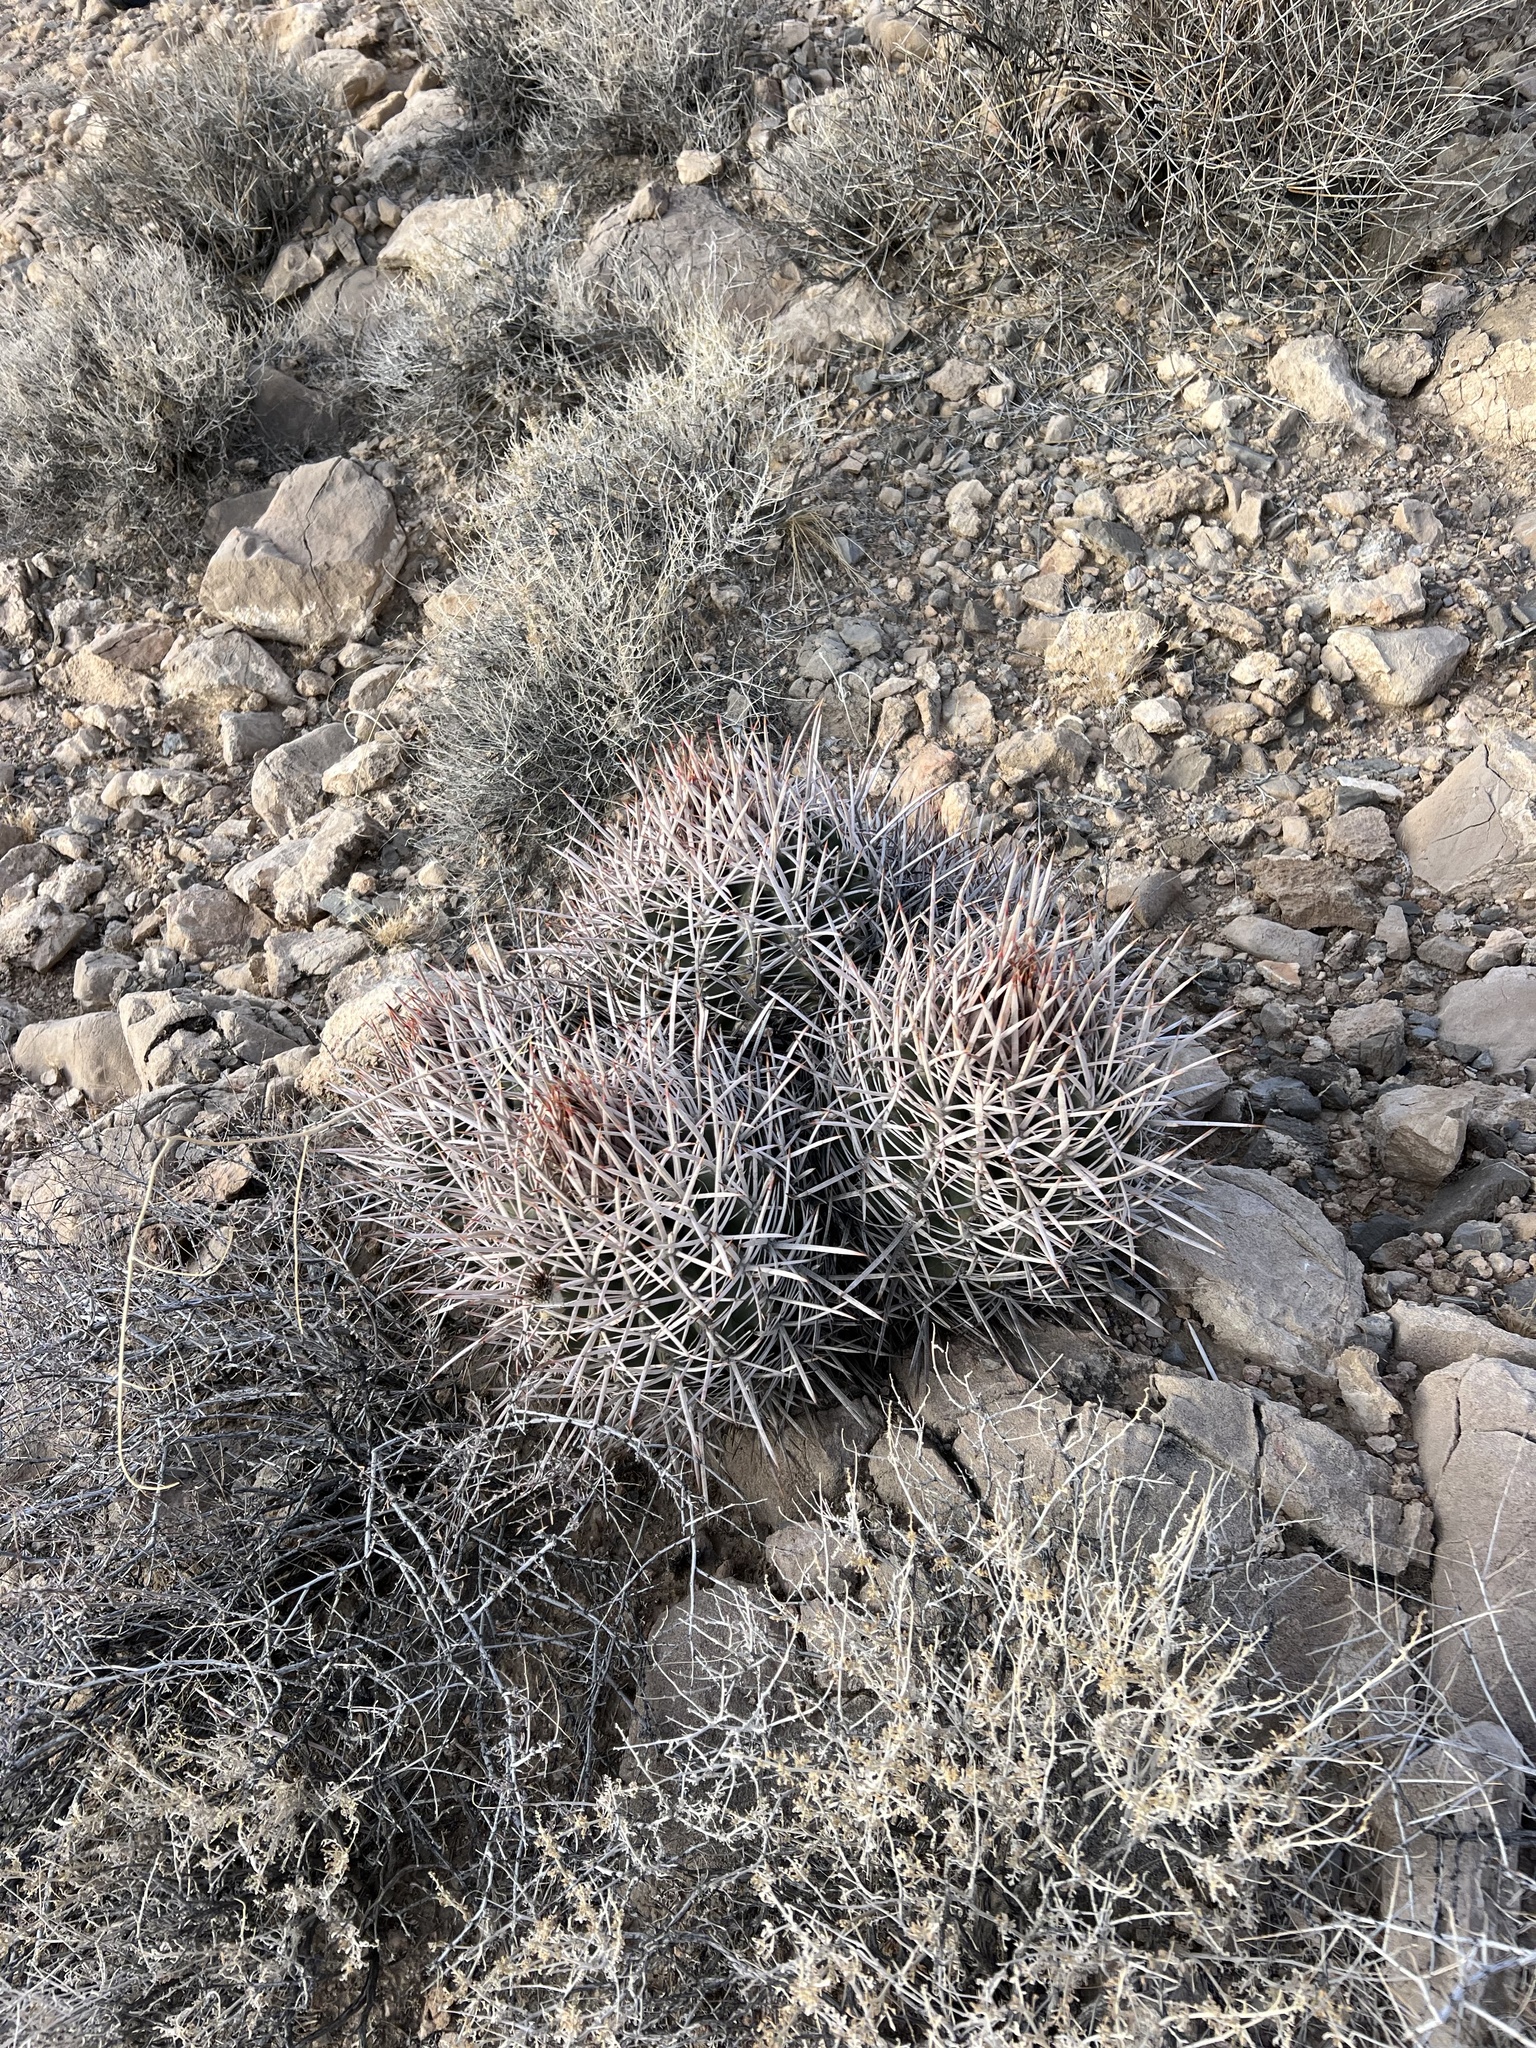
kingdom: Plantae
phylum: Tracheophyta
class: Magnoliopsida
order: Caryophyllales
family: Cactaceae
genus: Echinocactus
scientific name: Echinocactus polycephalus
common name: Cottontop cactus
